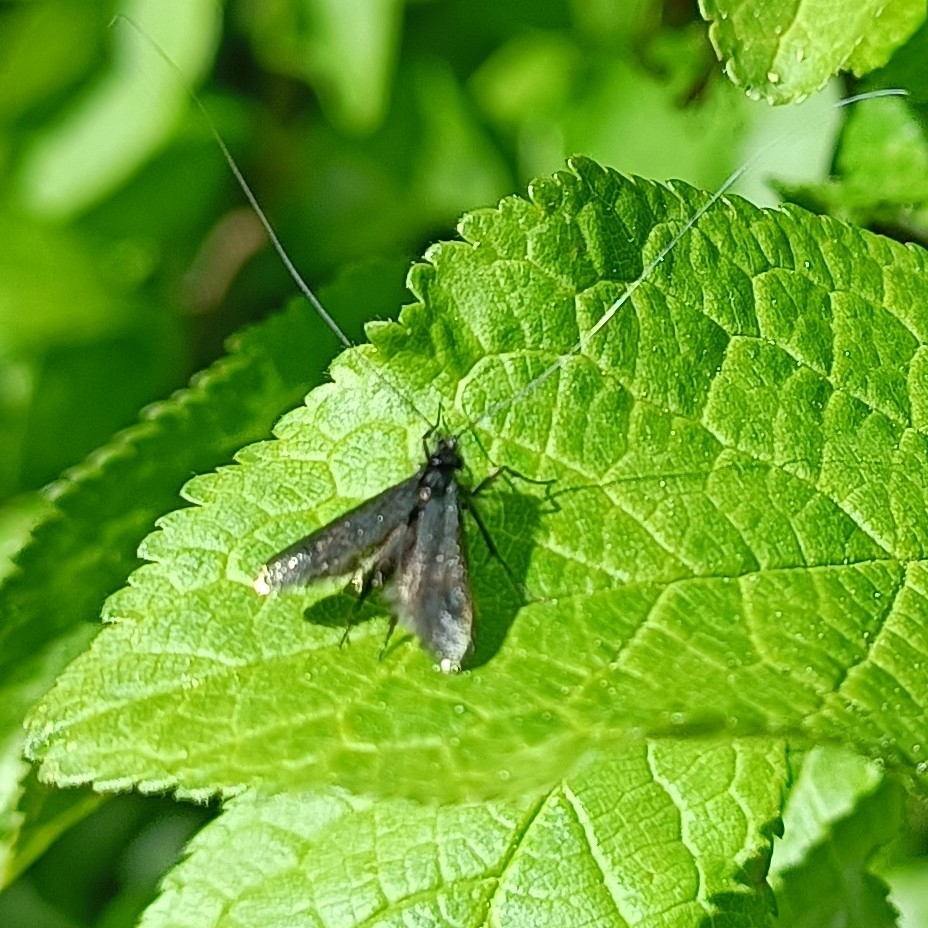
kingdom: Animalia
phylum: Arthropoda
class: Insecta
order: Lepidoptera
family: Adelidae
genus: Adela
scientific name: Adela viridella
